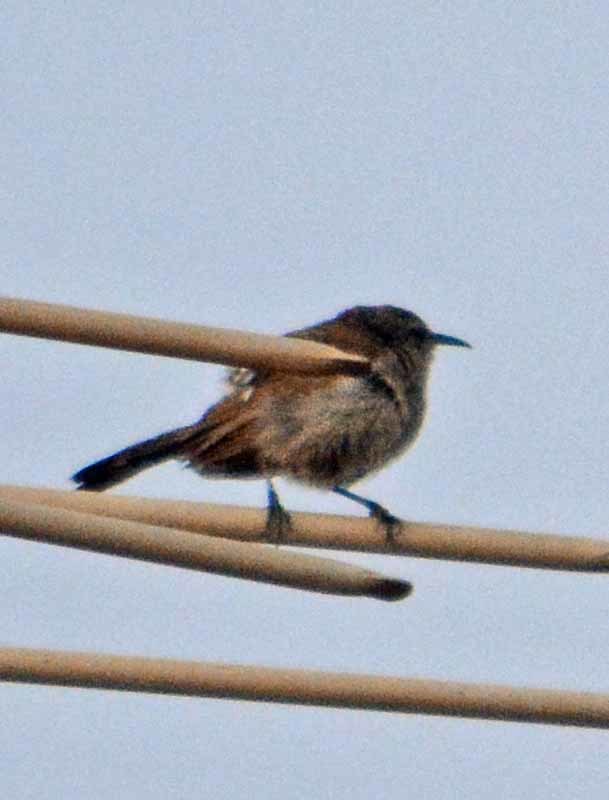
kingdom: Animalia
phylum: Chordata
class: Aves
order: Passeriformes
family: Troglodytidae
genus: Thryomanes
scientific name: Thryomanes bewickii
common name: Bewick's wren
